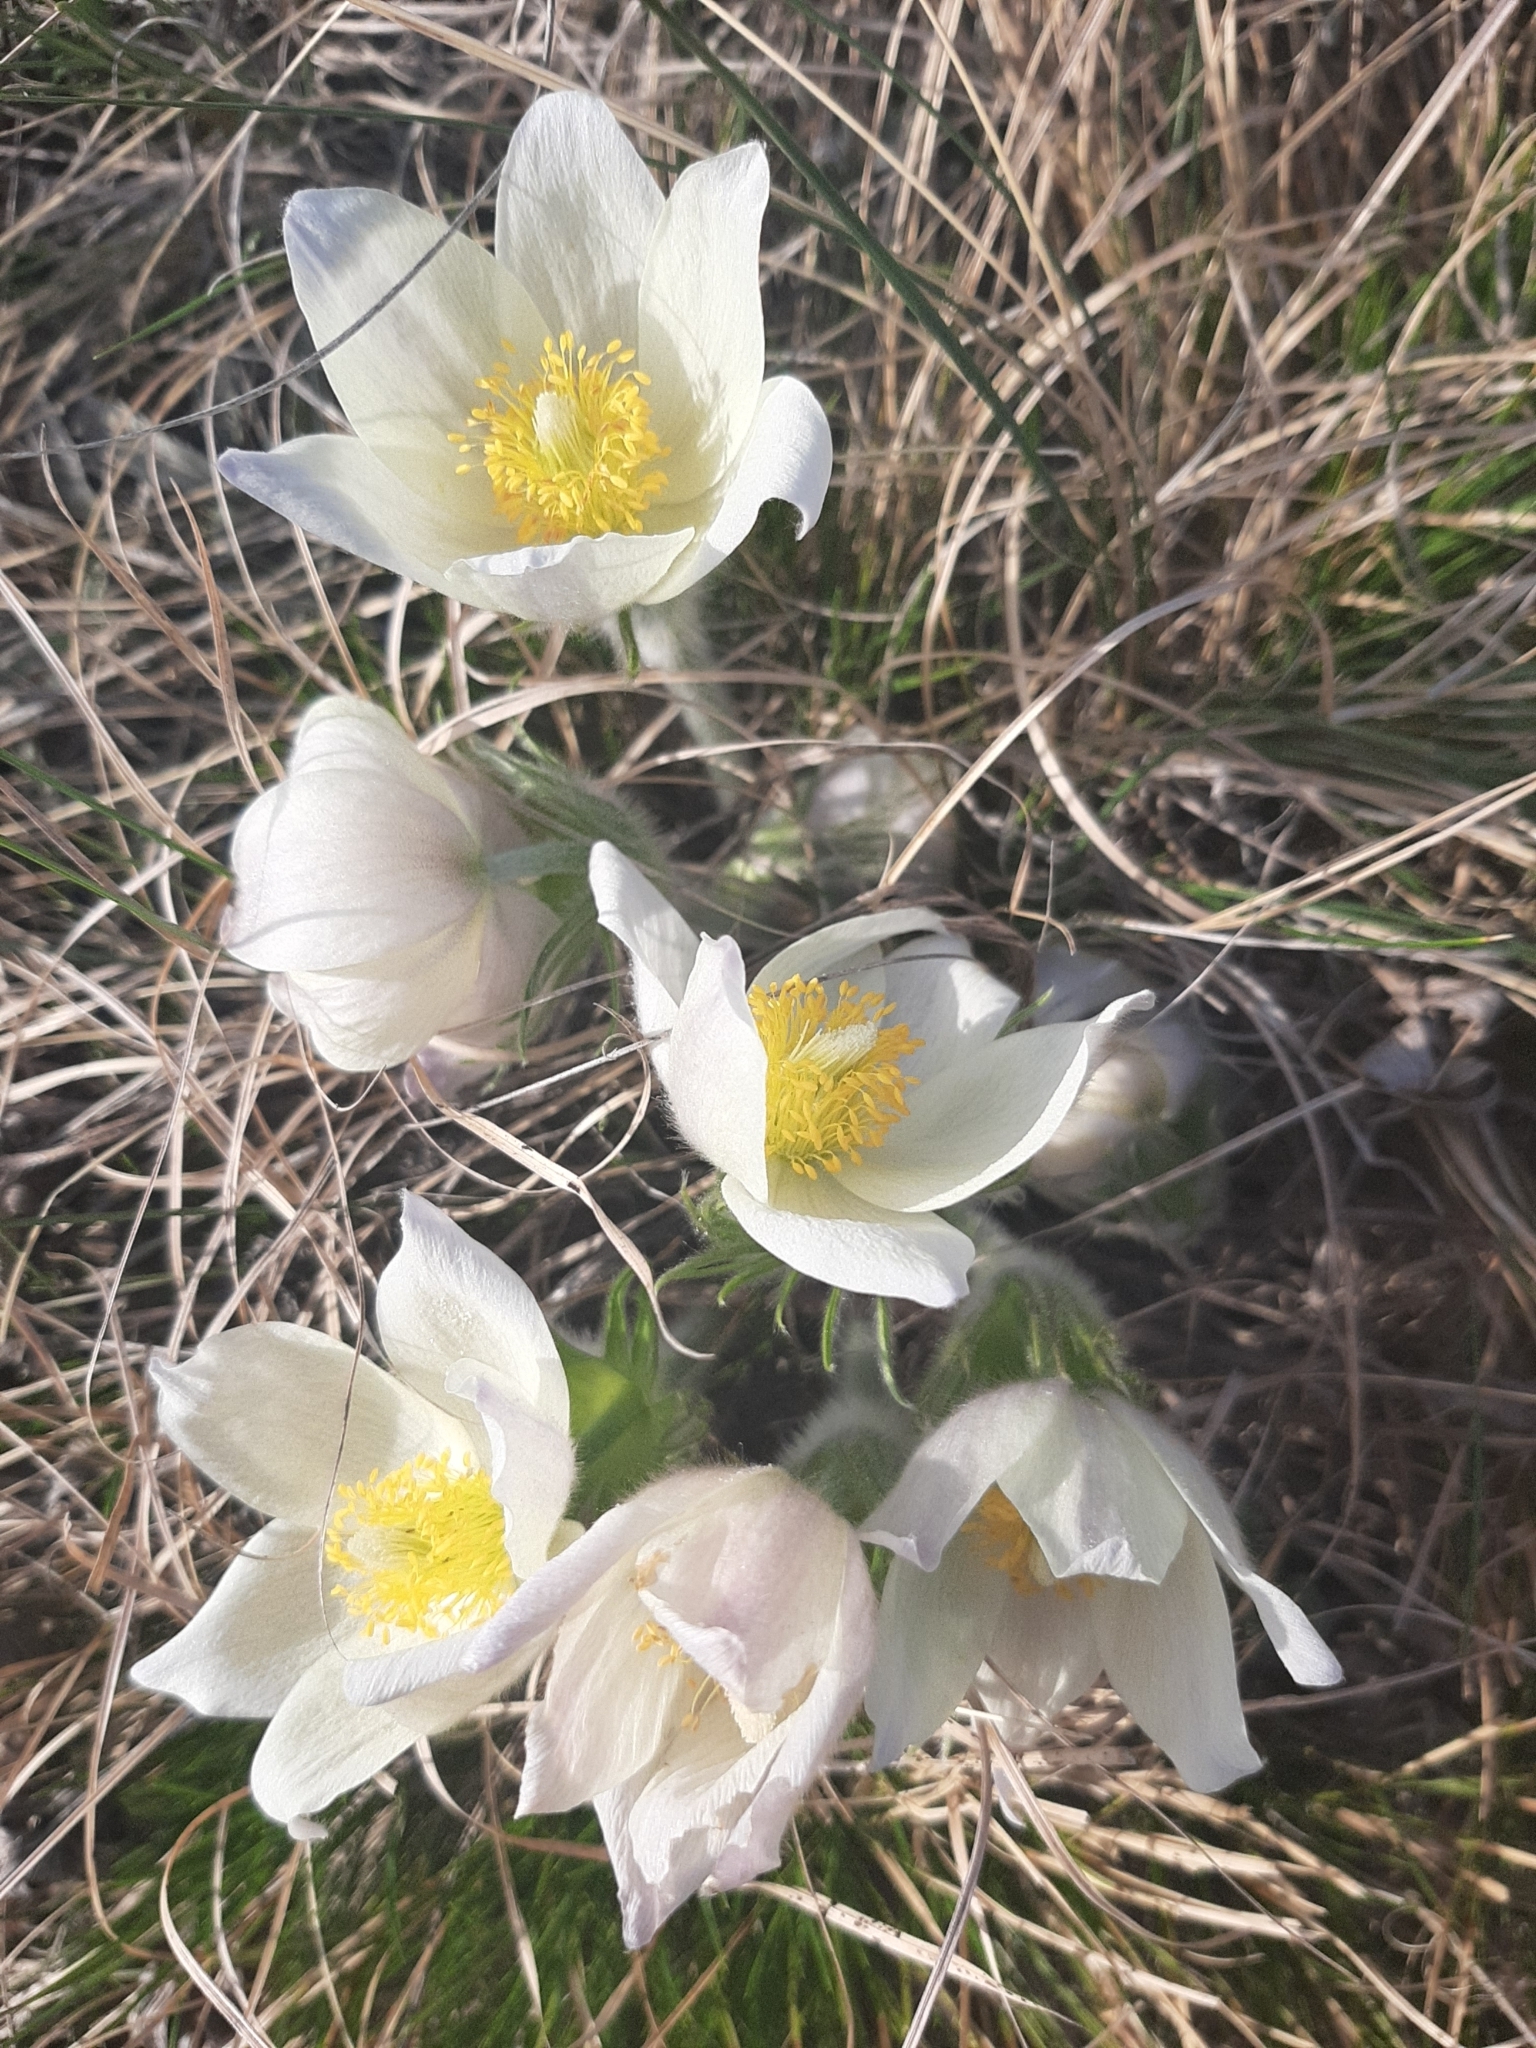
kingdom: Plantae
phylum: Tracheophyta
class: Magnoliopsida
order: Ranunculales
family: Ranunculaceae
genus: Pulsatilla
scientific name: Pulsatilla patens
